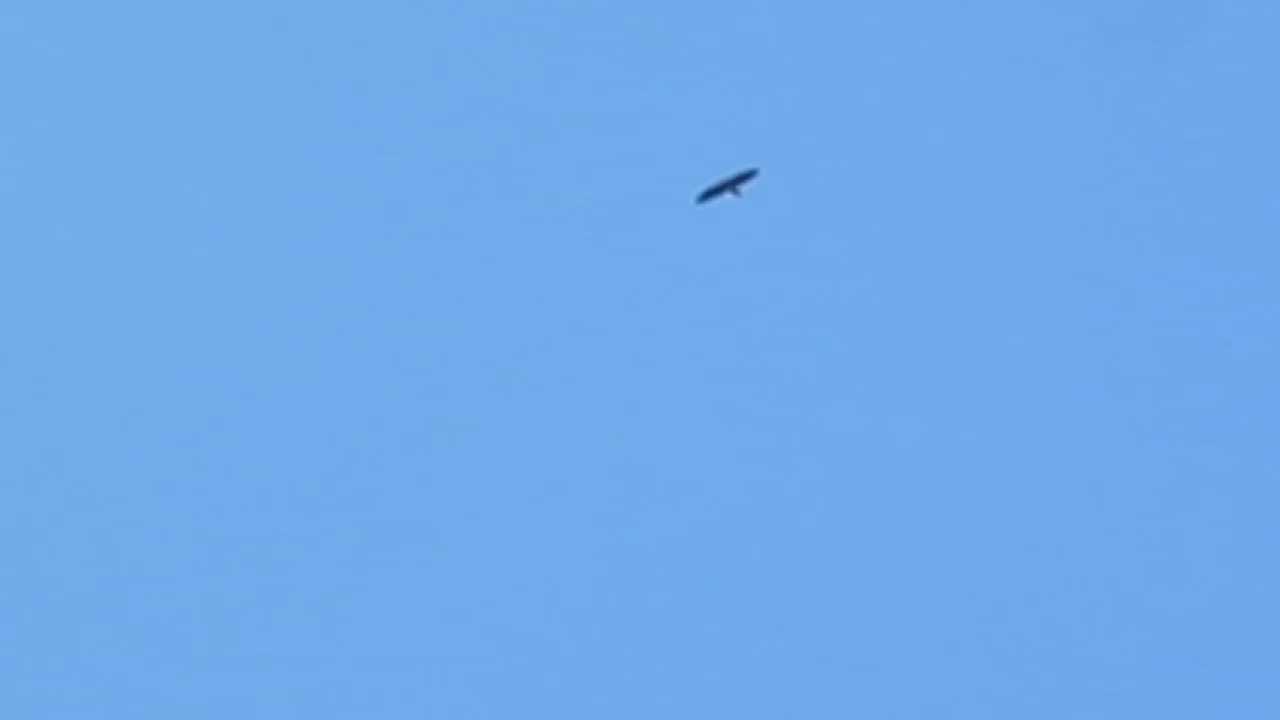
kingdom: Animalia
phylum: Chordata
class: Aves
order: Accipitriformes
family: Accipitridae
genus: Haliaeetus
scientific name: Haliaeetus leucocephalus
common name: Bald eagle
